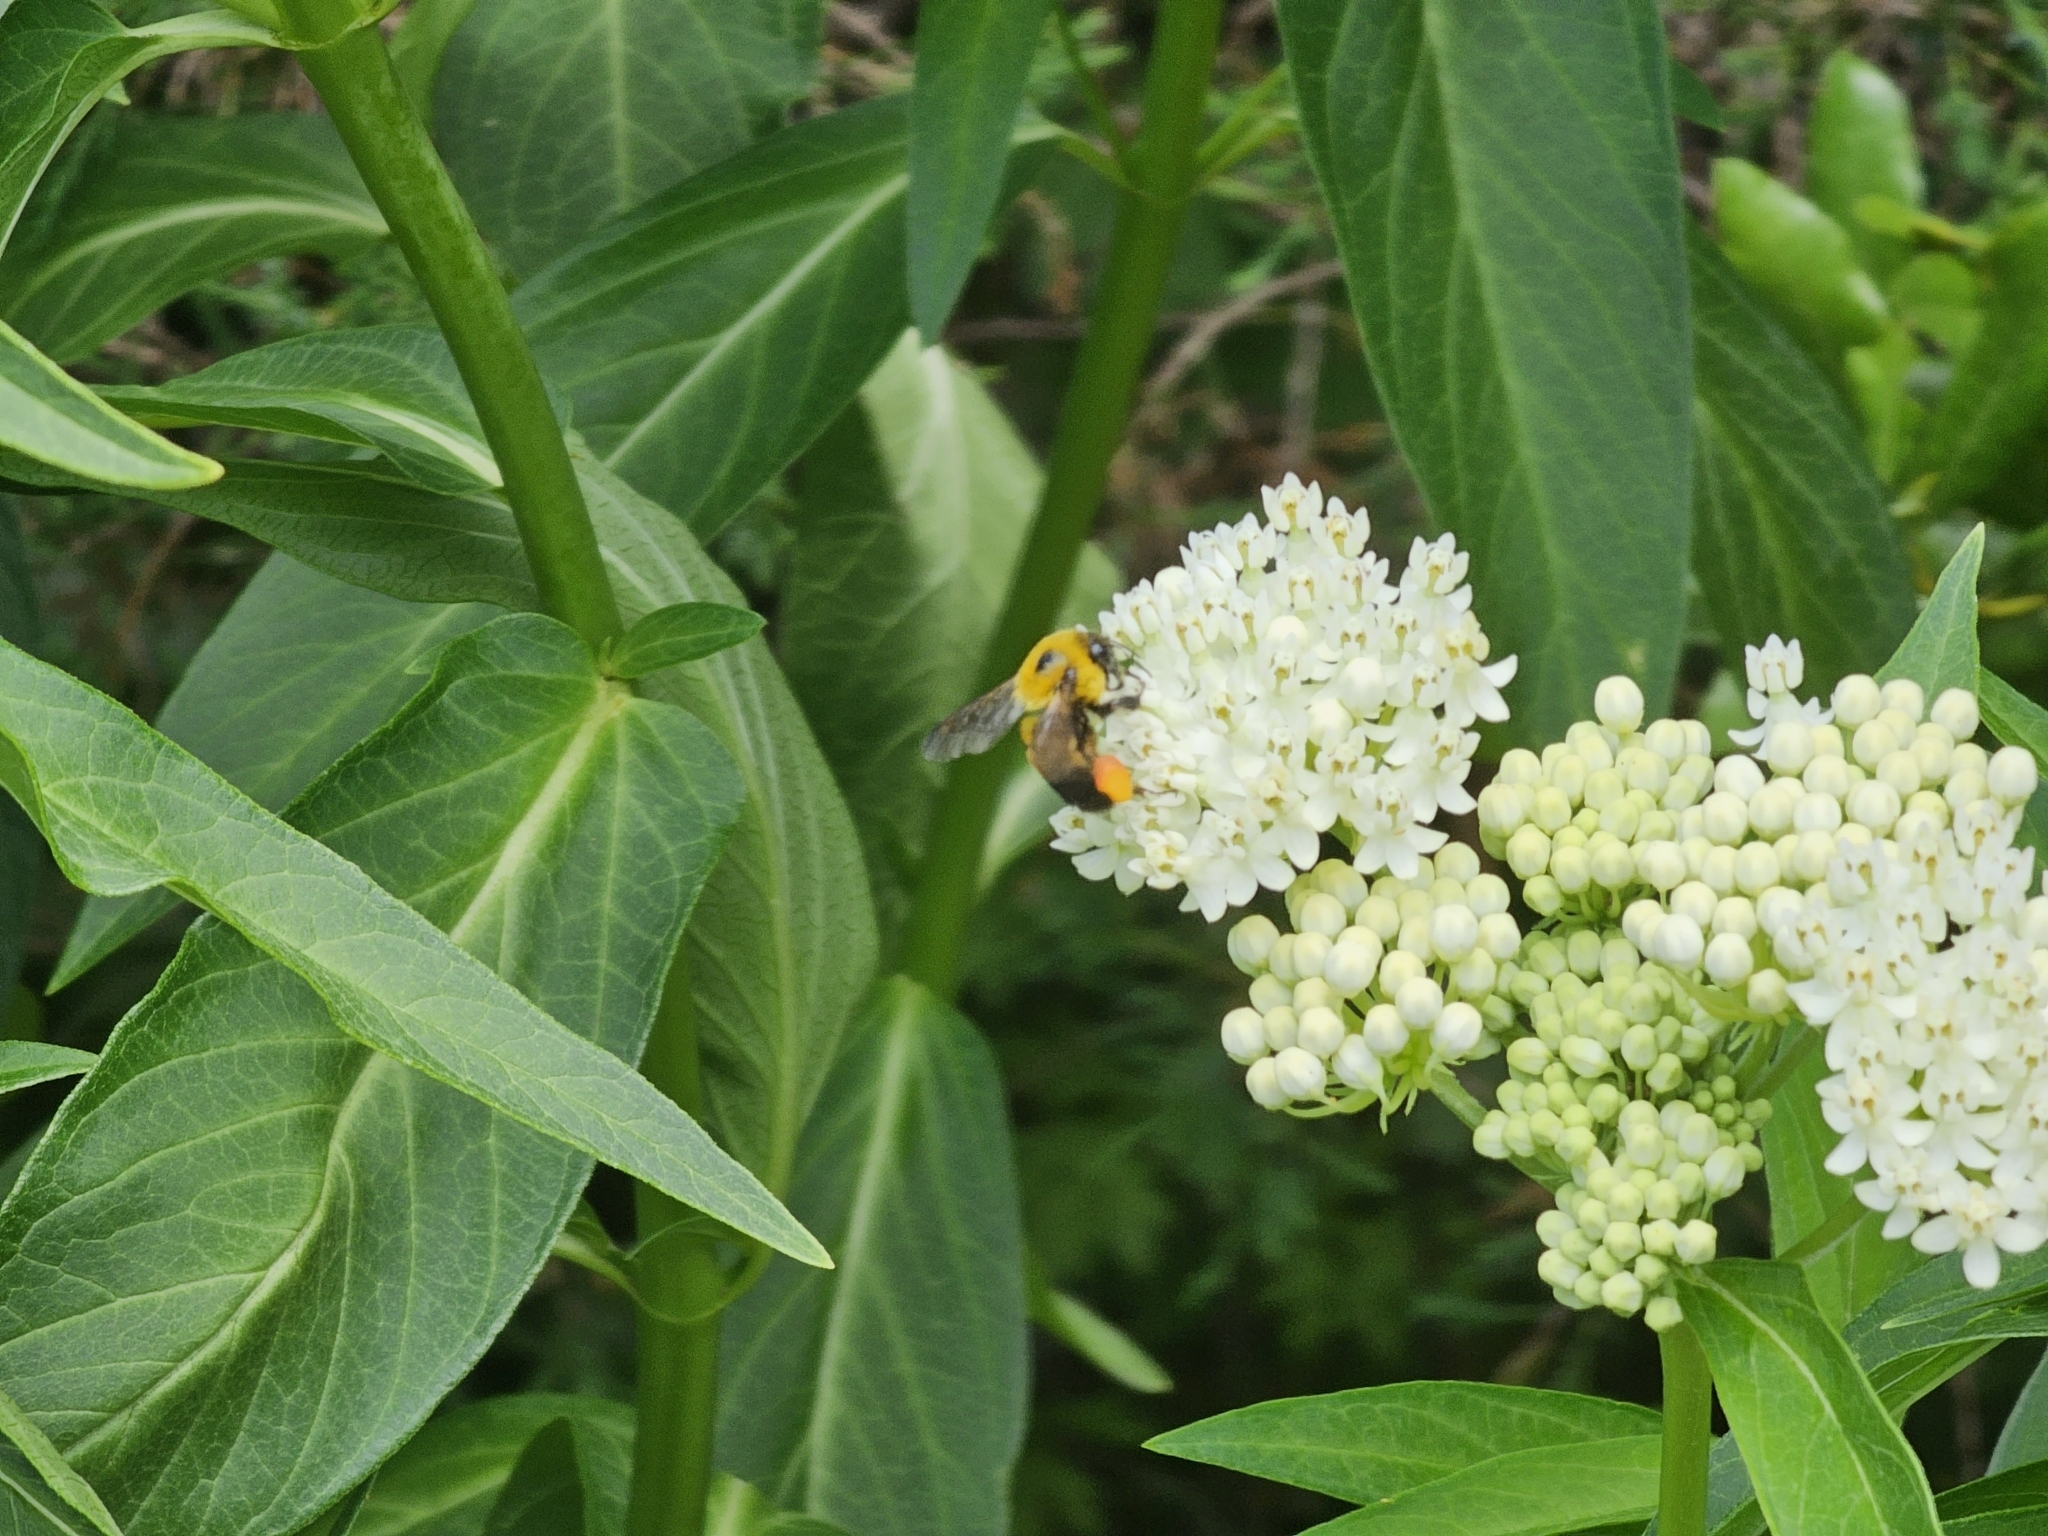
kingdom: Animalia
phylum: Arthropoda
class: Insecta
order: Hymenoptera
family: Apidae
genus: Bombus
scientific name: Bombus griseocollis
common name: Brown-belted bumble bee
